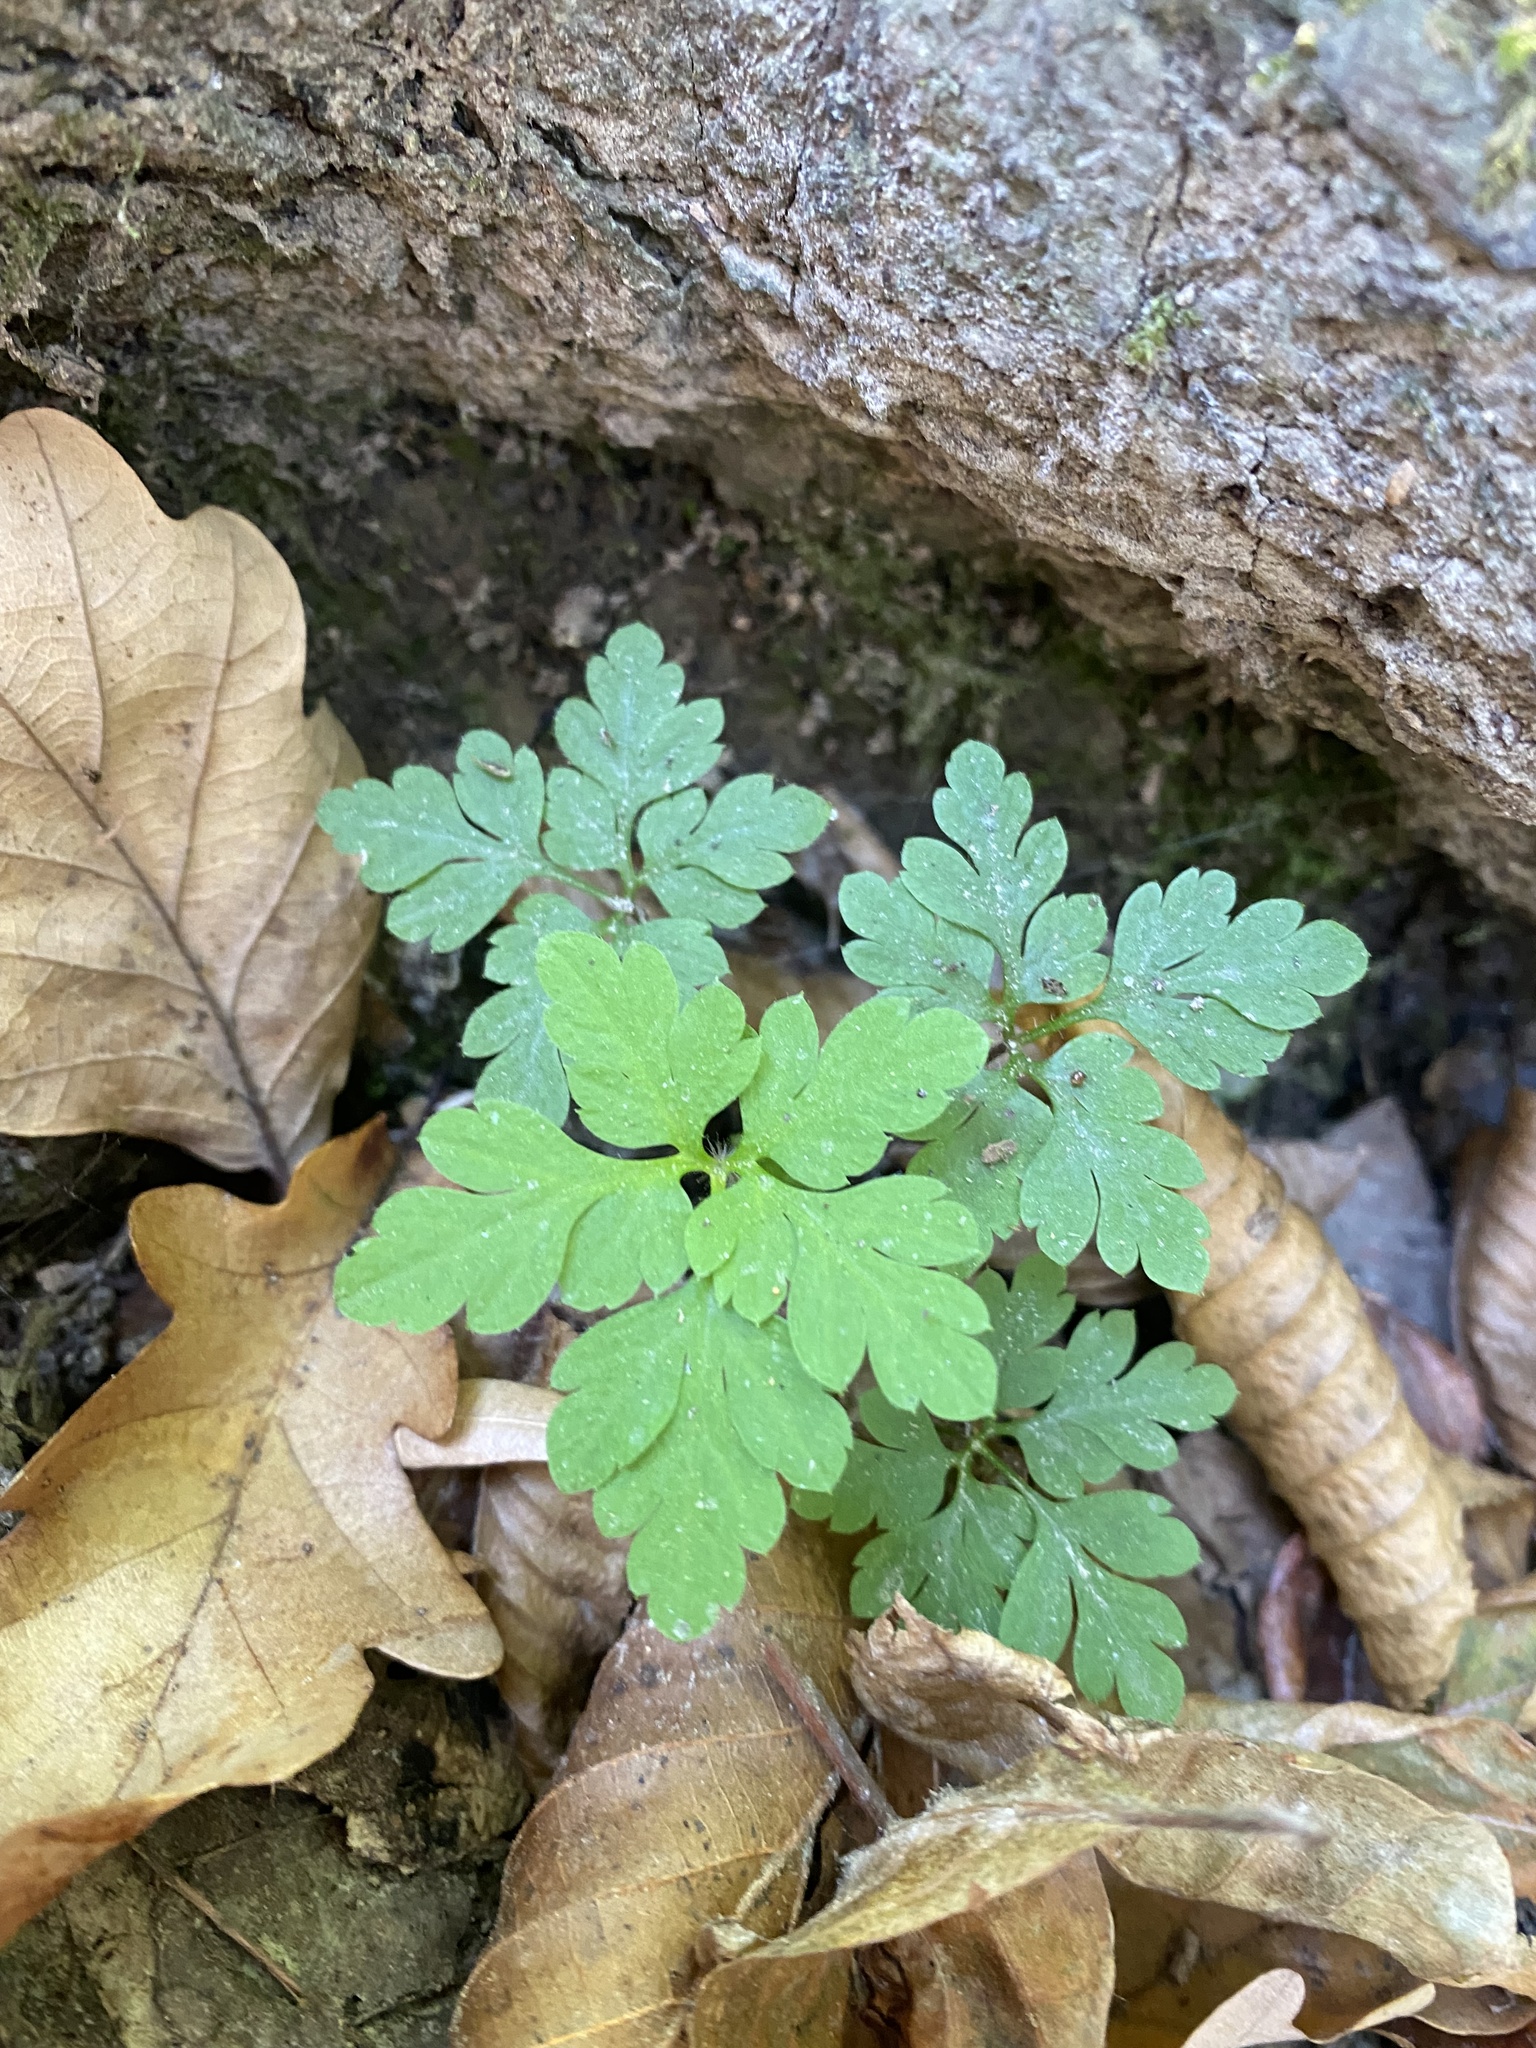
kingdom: Plantae
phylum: Tracheophyta
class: Magnoliopsida
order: Geraniales
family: Geraniaceae
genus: Geranium
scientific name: Geranium robertianum
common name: Herb-robert
